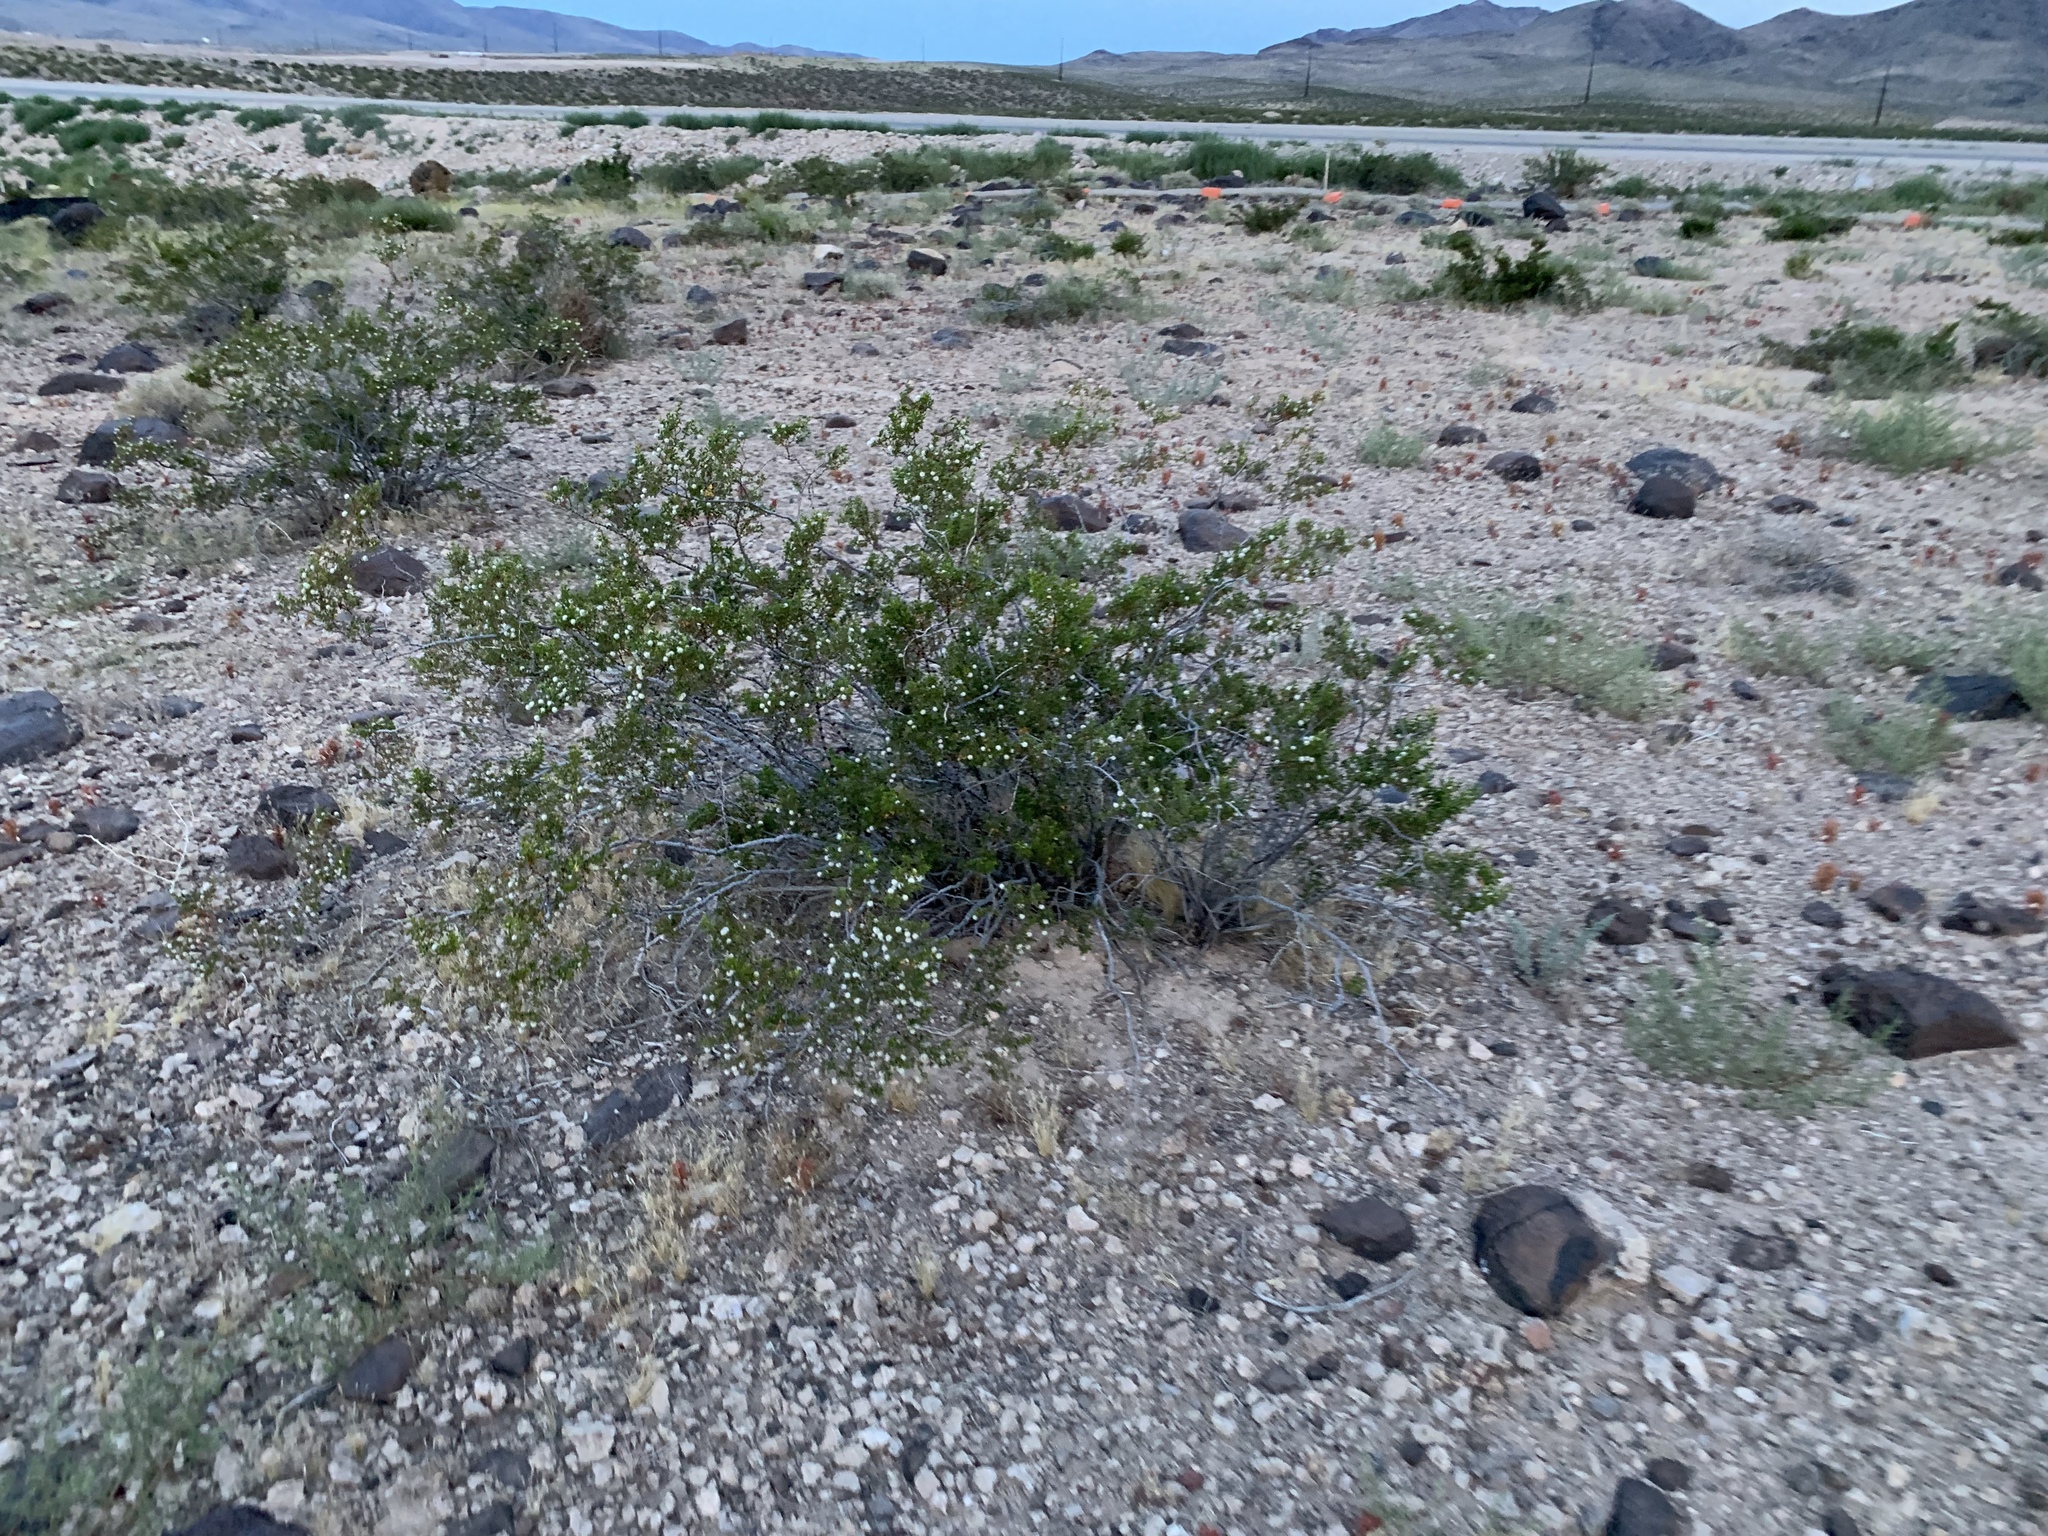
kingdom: Plantae
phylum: Tracheophyta
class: Magnoliopsida
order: Zygophyllales
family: Zygophyllaceae
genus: Larrea
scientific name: Larrea tridentata
